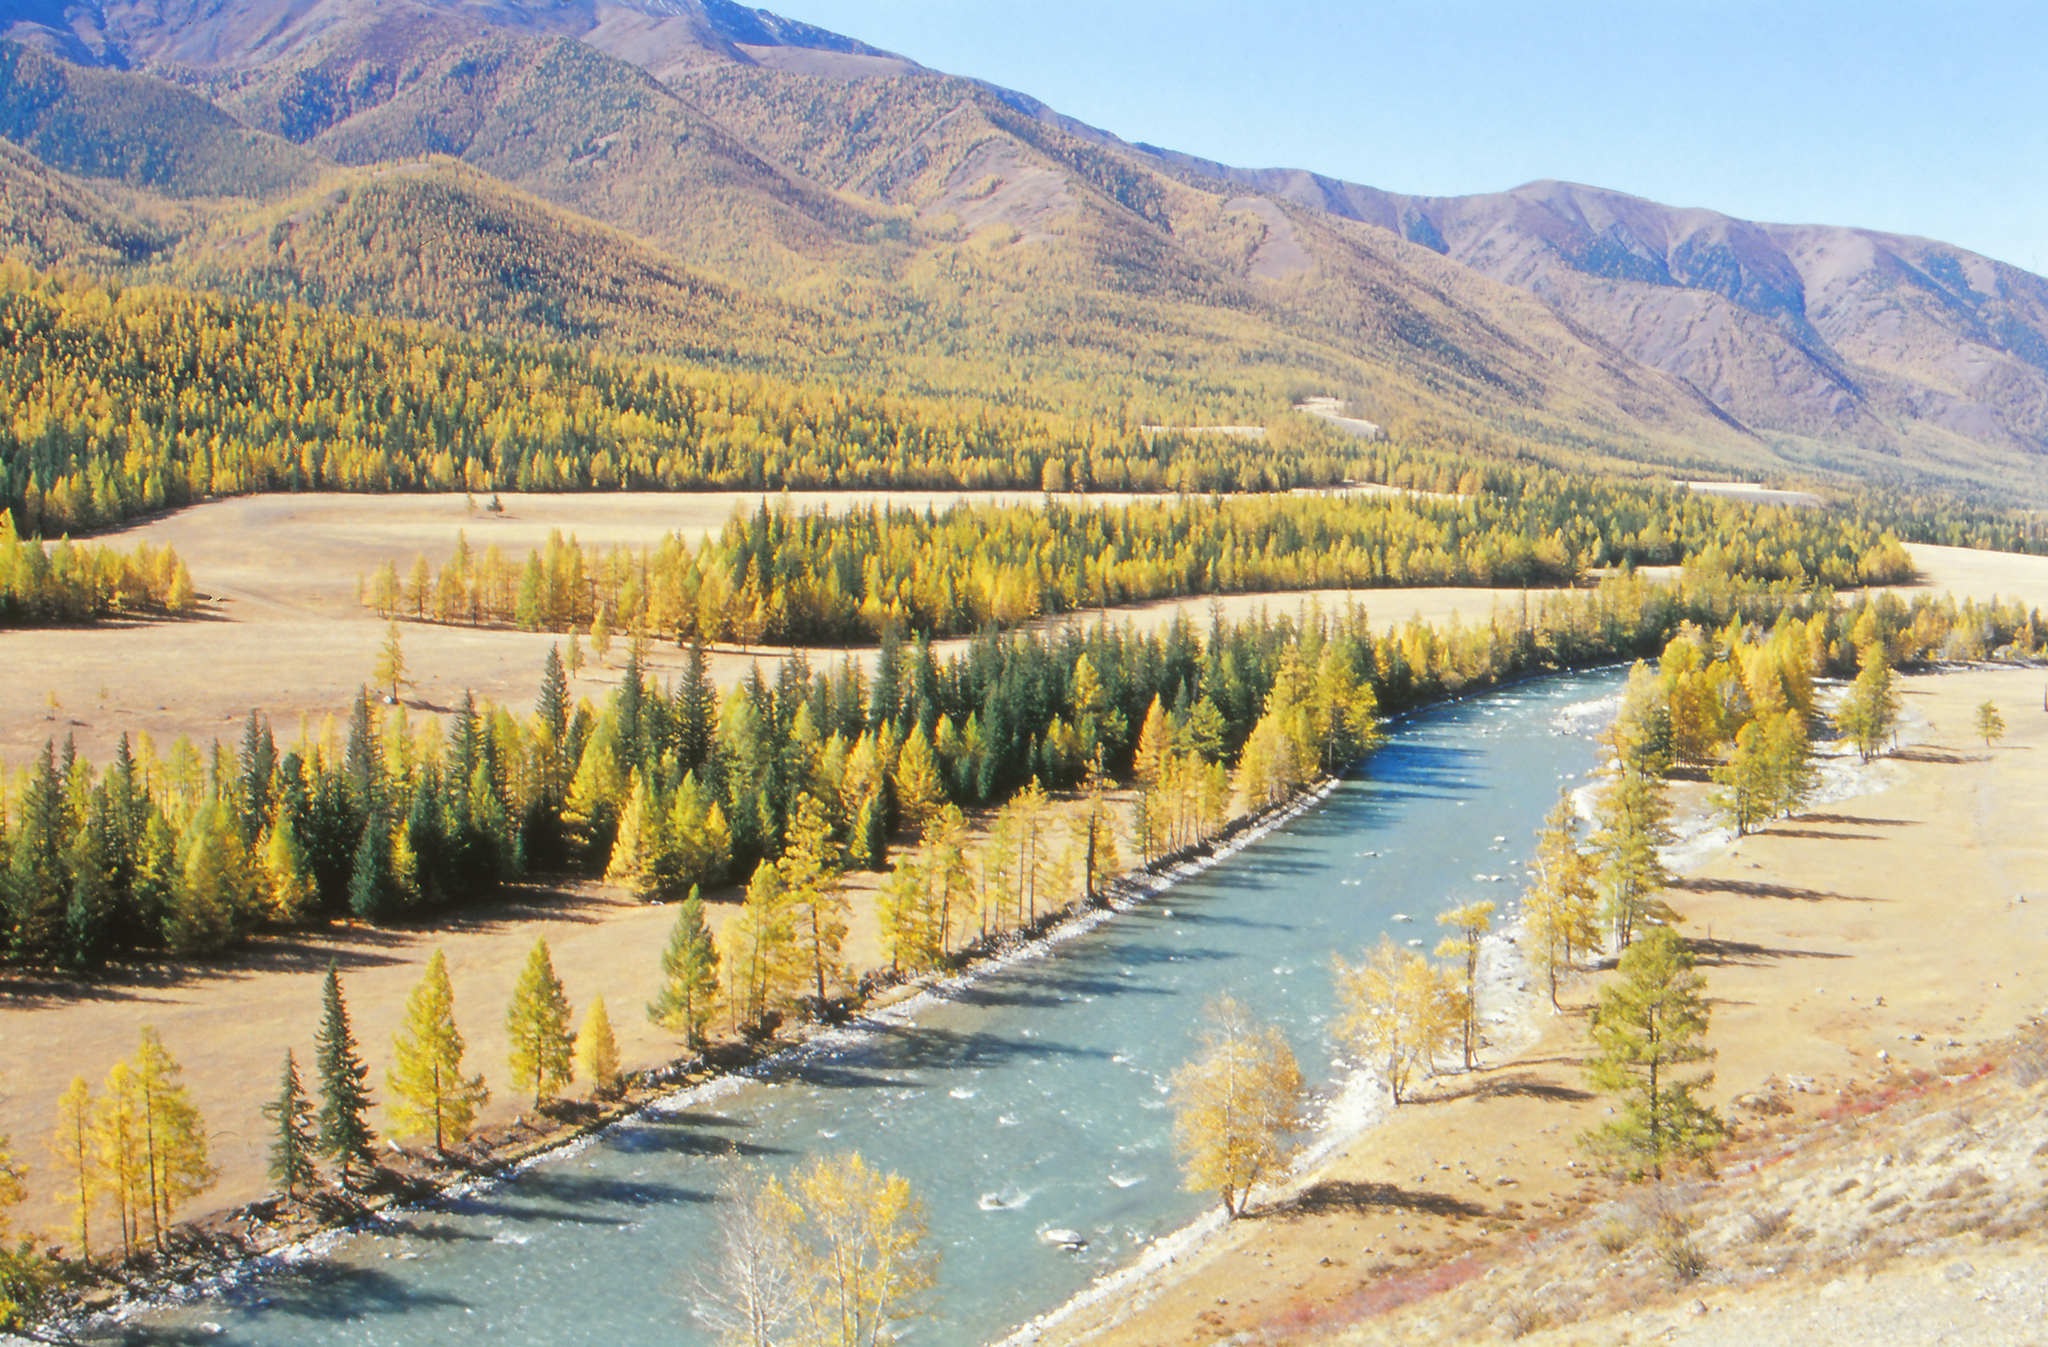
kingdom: Plantae
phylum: Tracheophyta
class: Pinopsida
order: Pinales
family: Pinaceae
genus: Larix
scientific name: Larix sibirica
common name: Siberian larch
